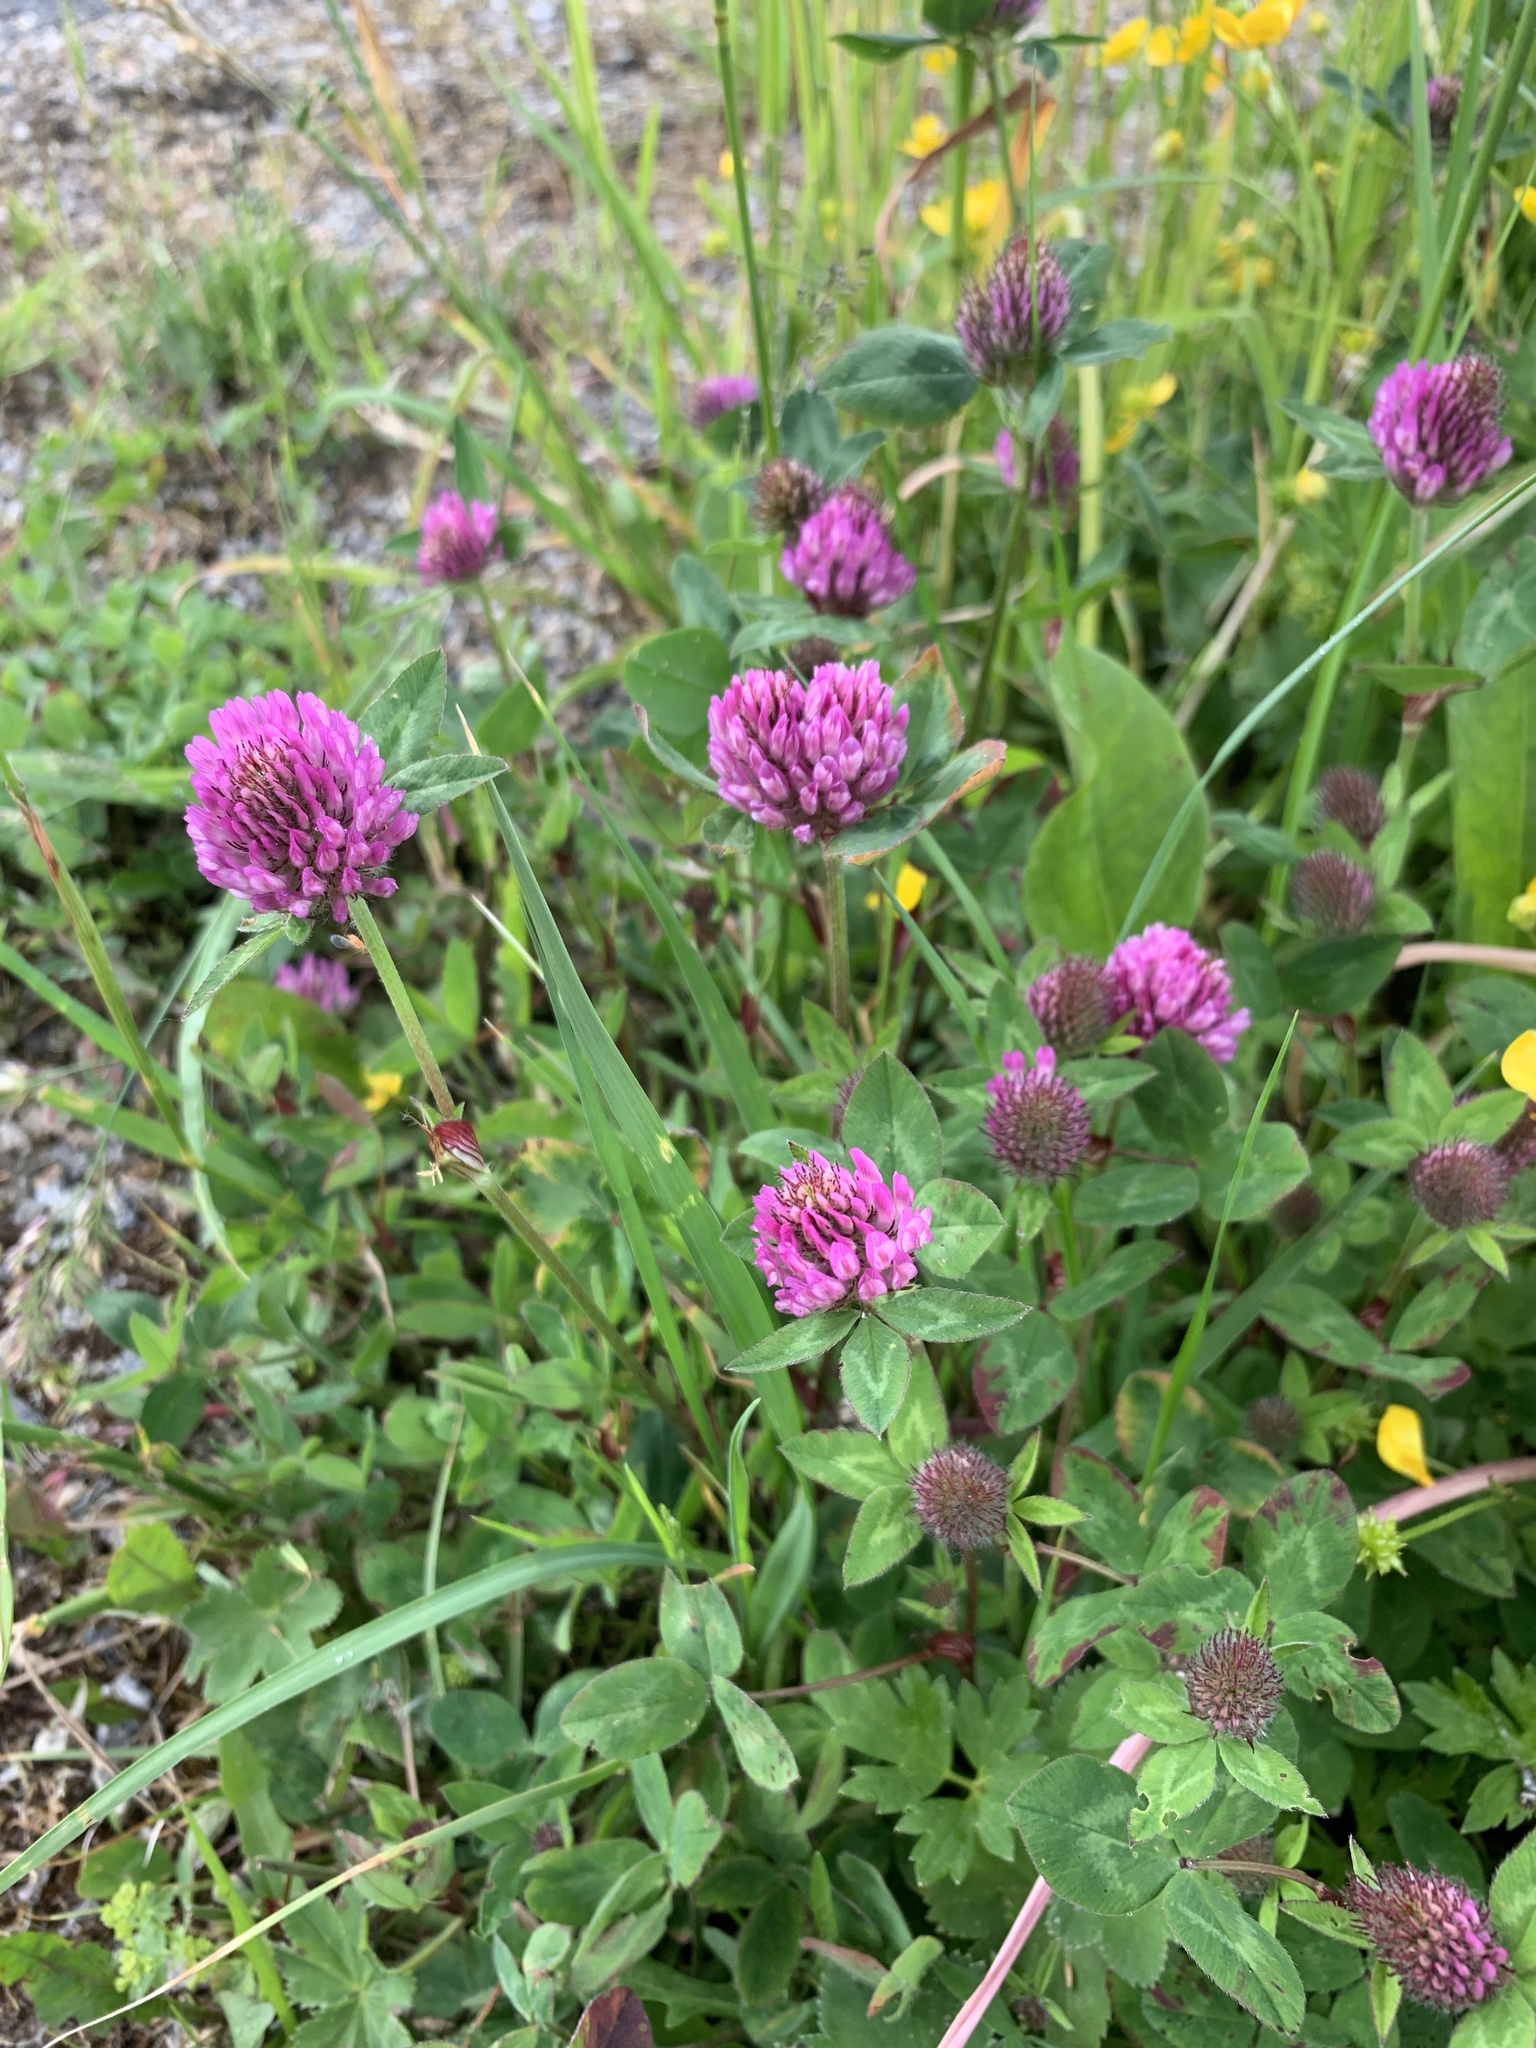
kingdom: Plantae
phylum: Tracheophyta
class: Magnoliopsida
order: Fabales
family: Fabaceae
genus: Trifolium
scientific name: Trifolium pratense
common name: Red clover
